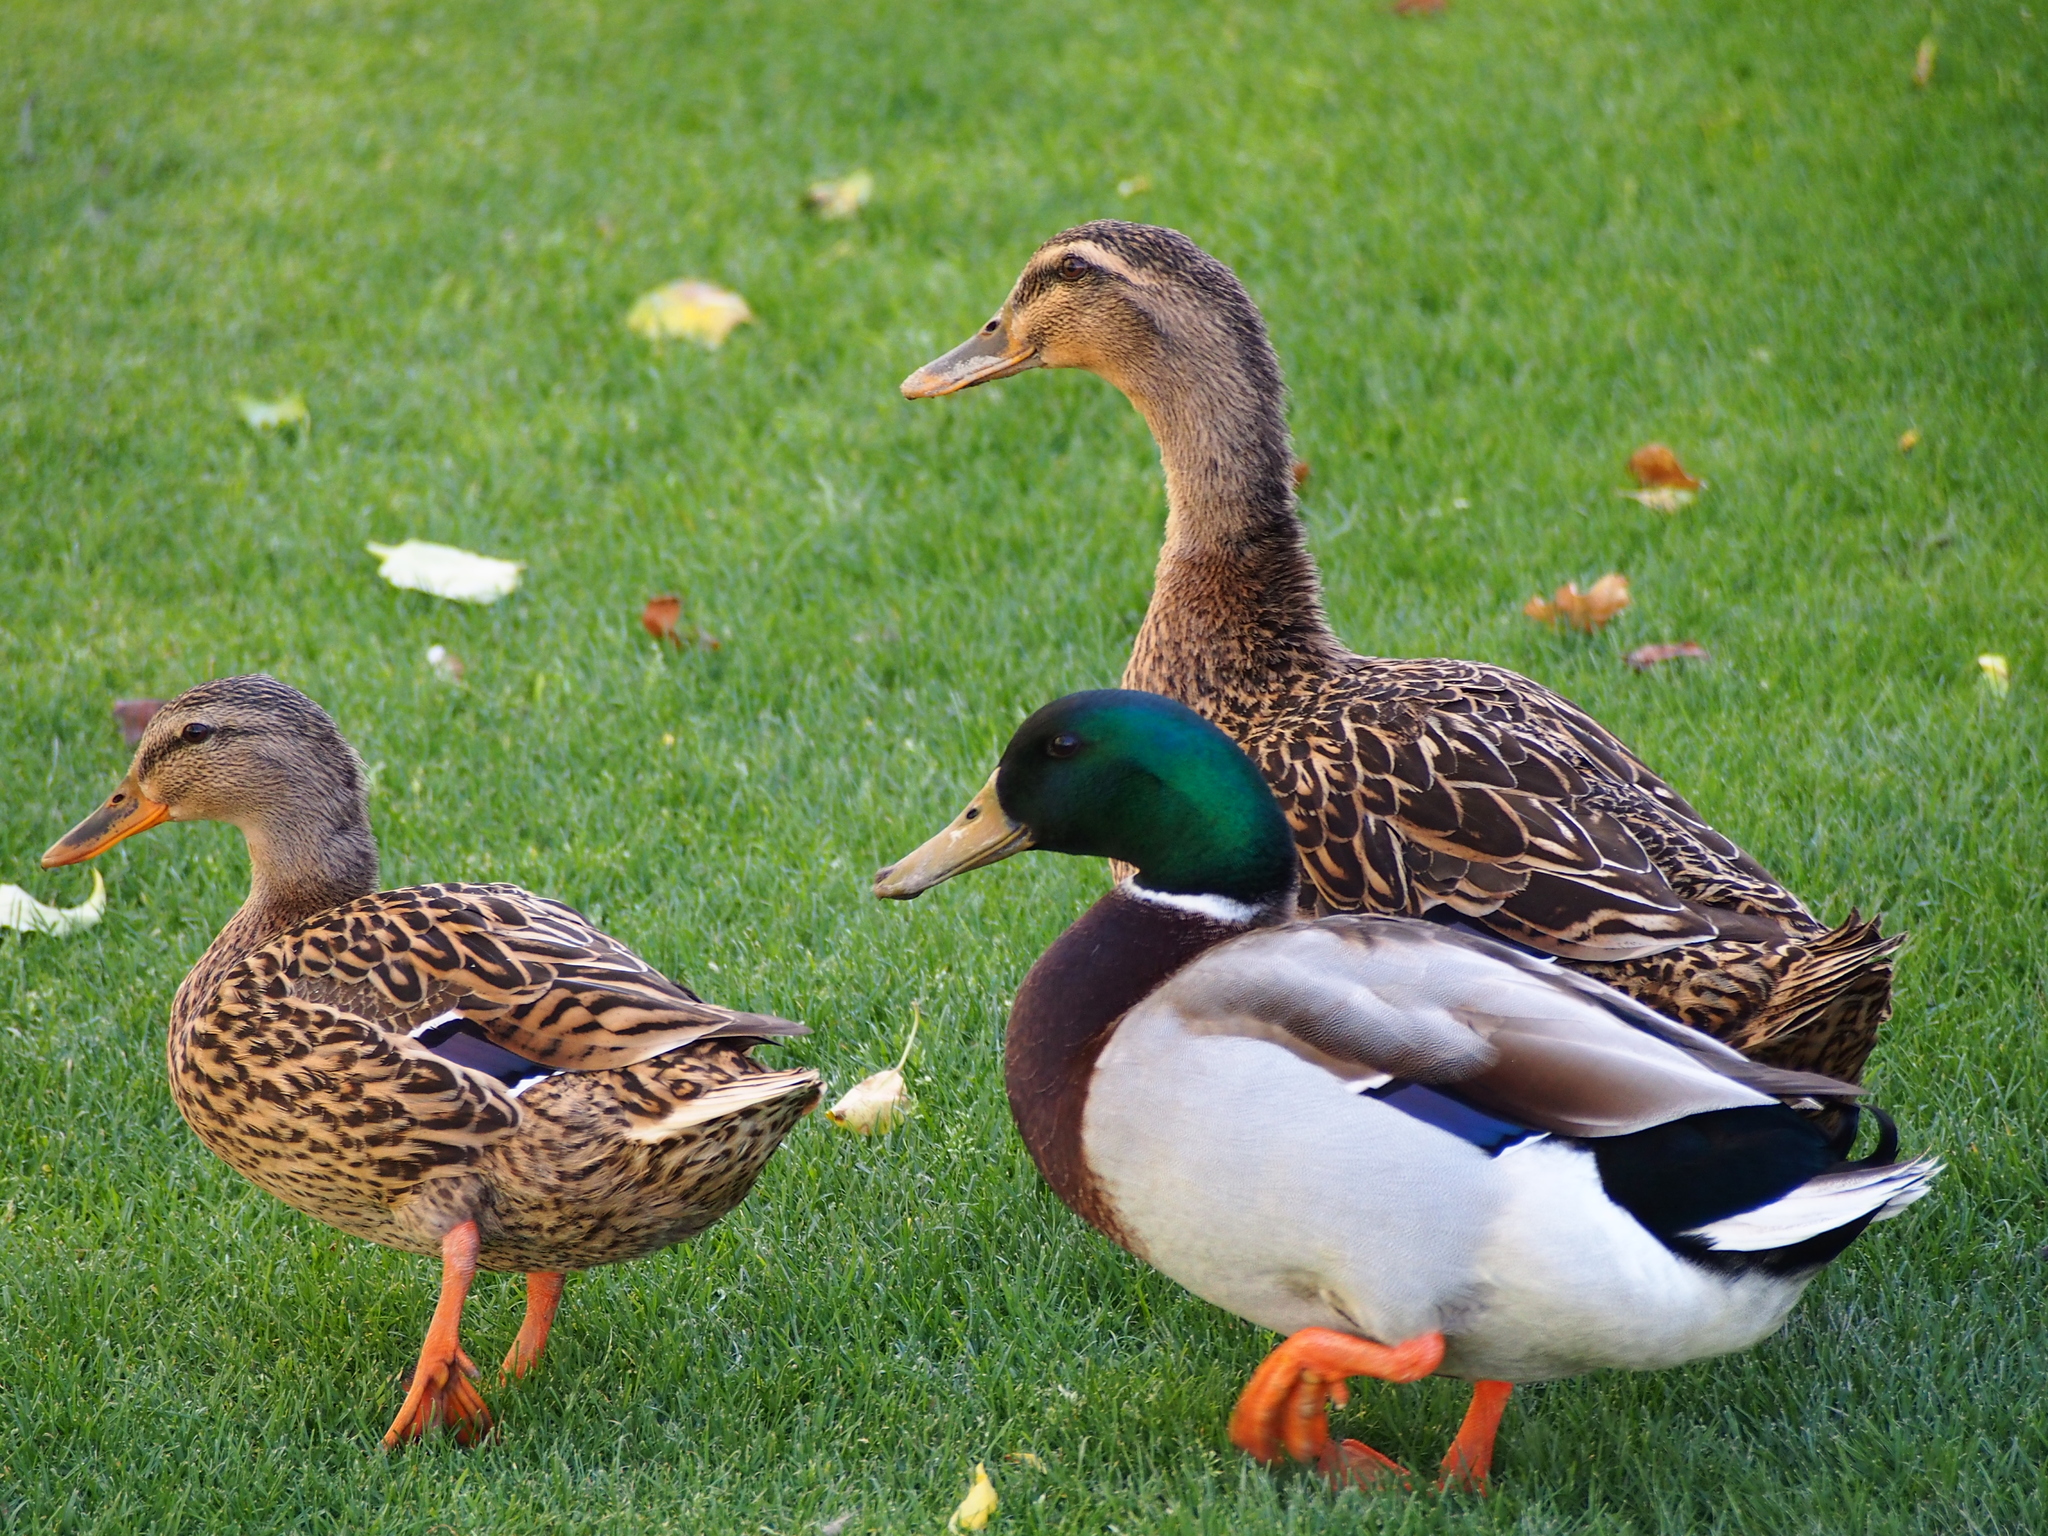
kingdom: Animalia
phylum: Chordata
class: Aves
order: Anseriformes
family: Anatidae
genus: Anas
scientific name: Anas platyrhynchos
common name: Mallard
